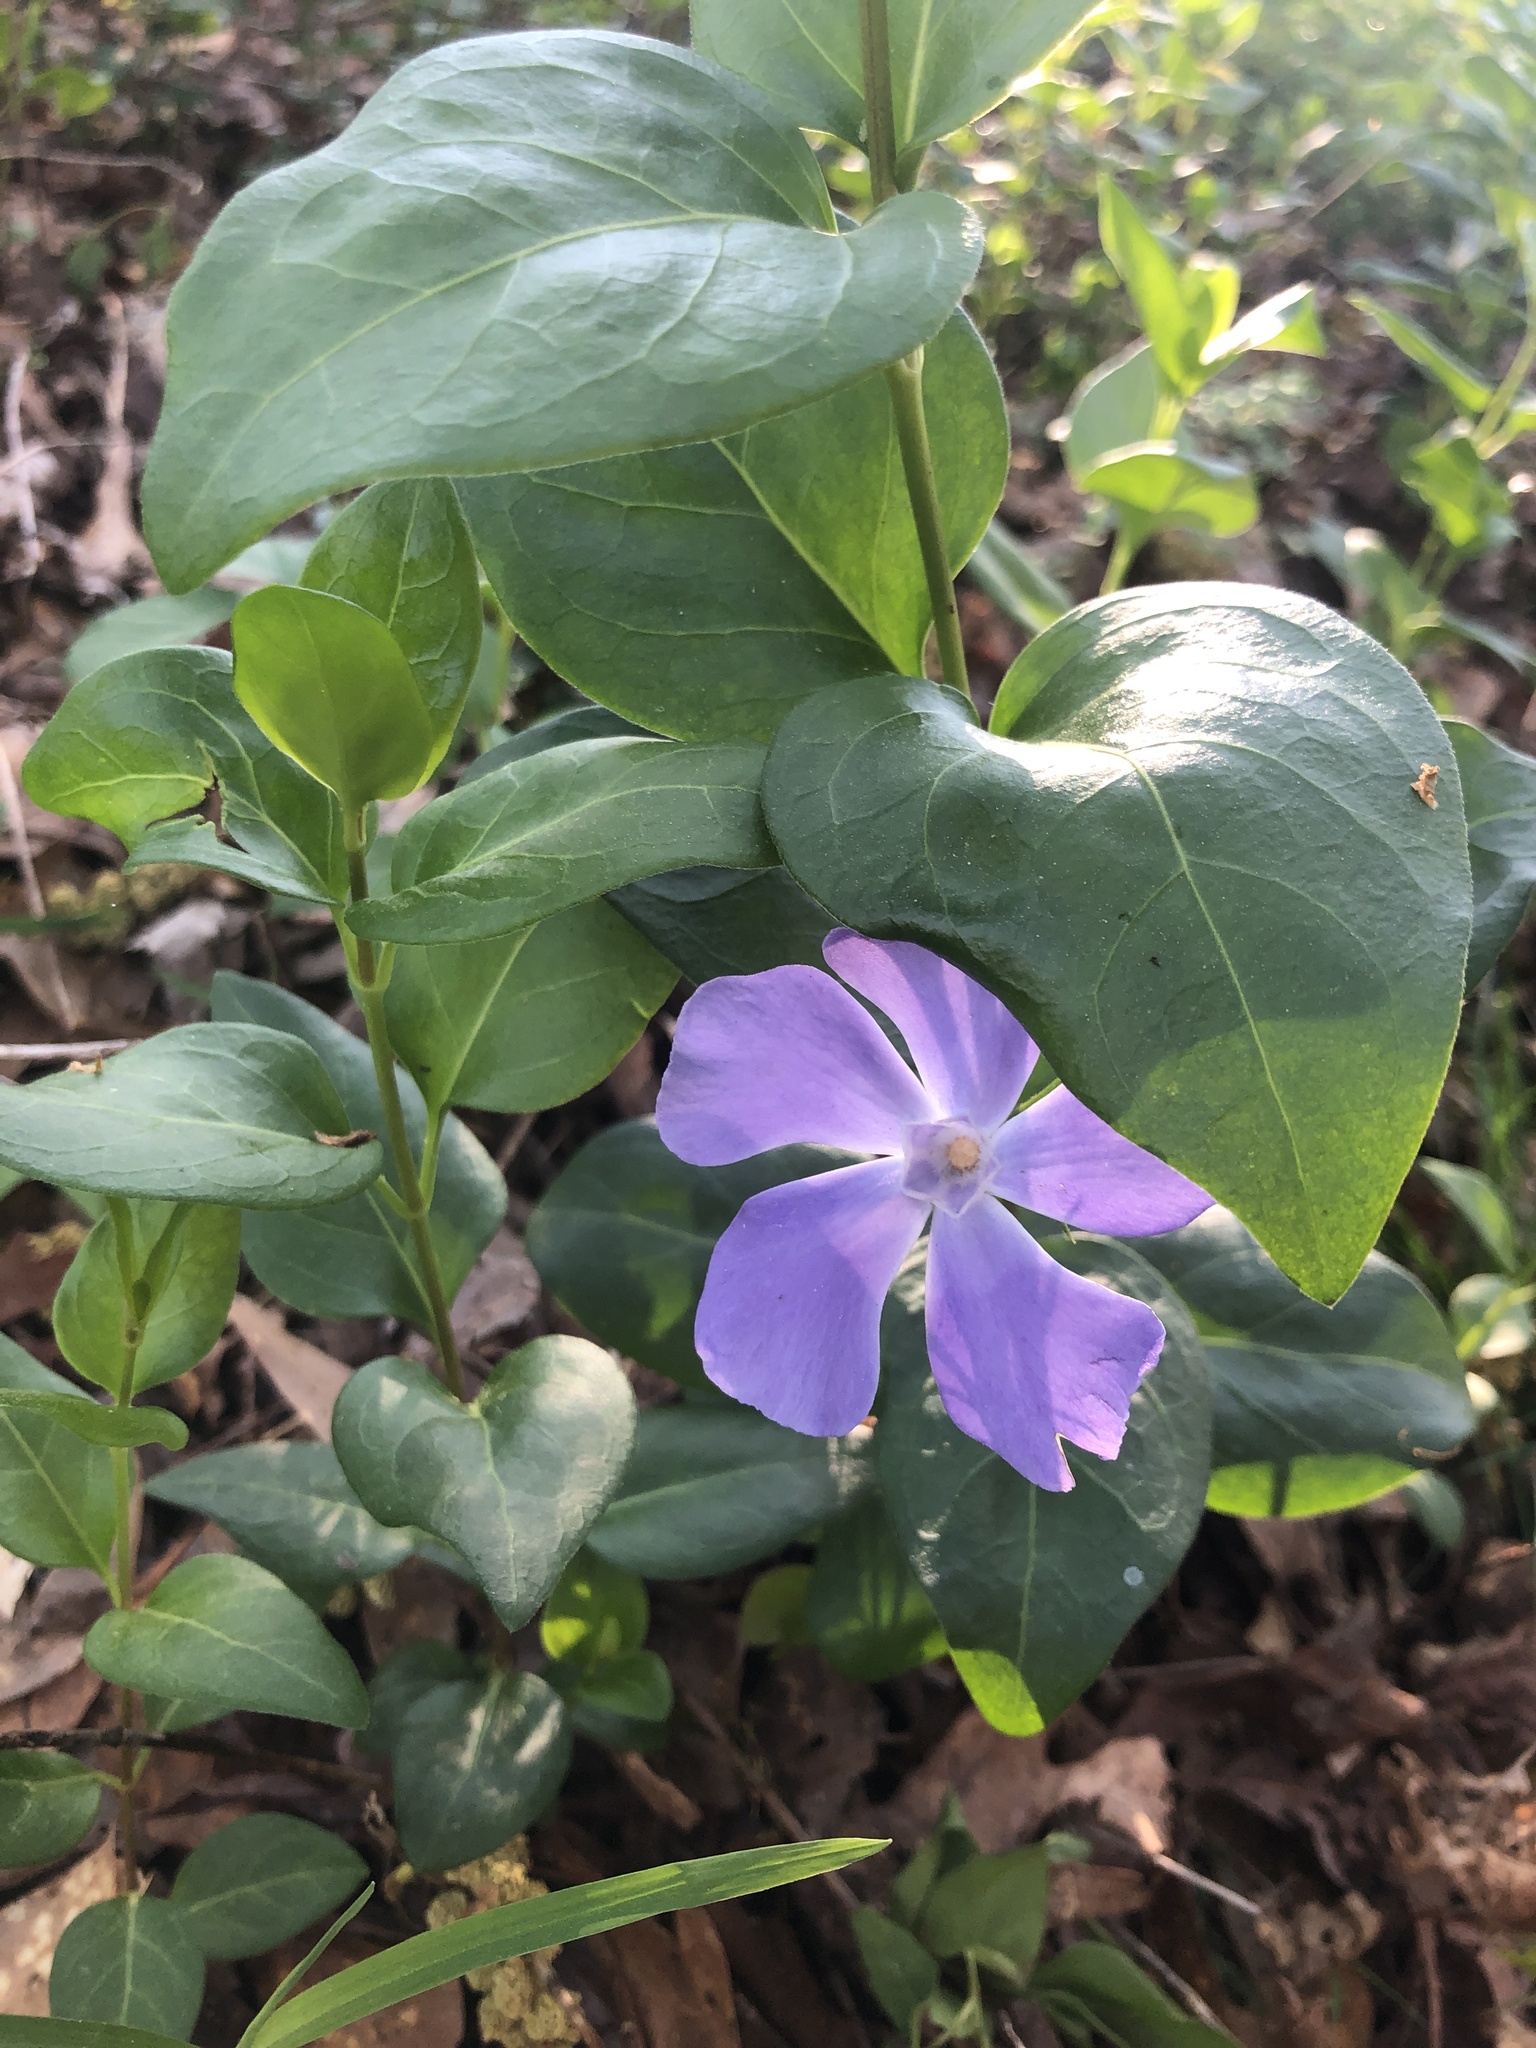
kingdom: Plantae
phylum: Tracheophyta
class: Magnoliopsida
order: Gentianales
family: Apocynaceae
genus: Vinca
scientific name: Vinca major
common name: Greater periwinkle
